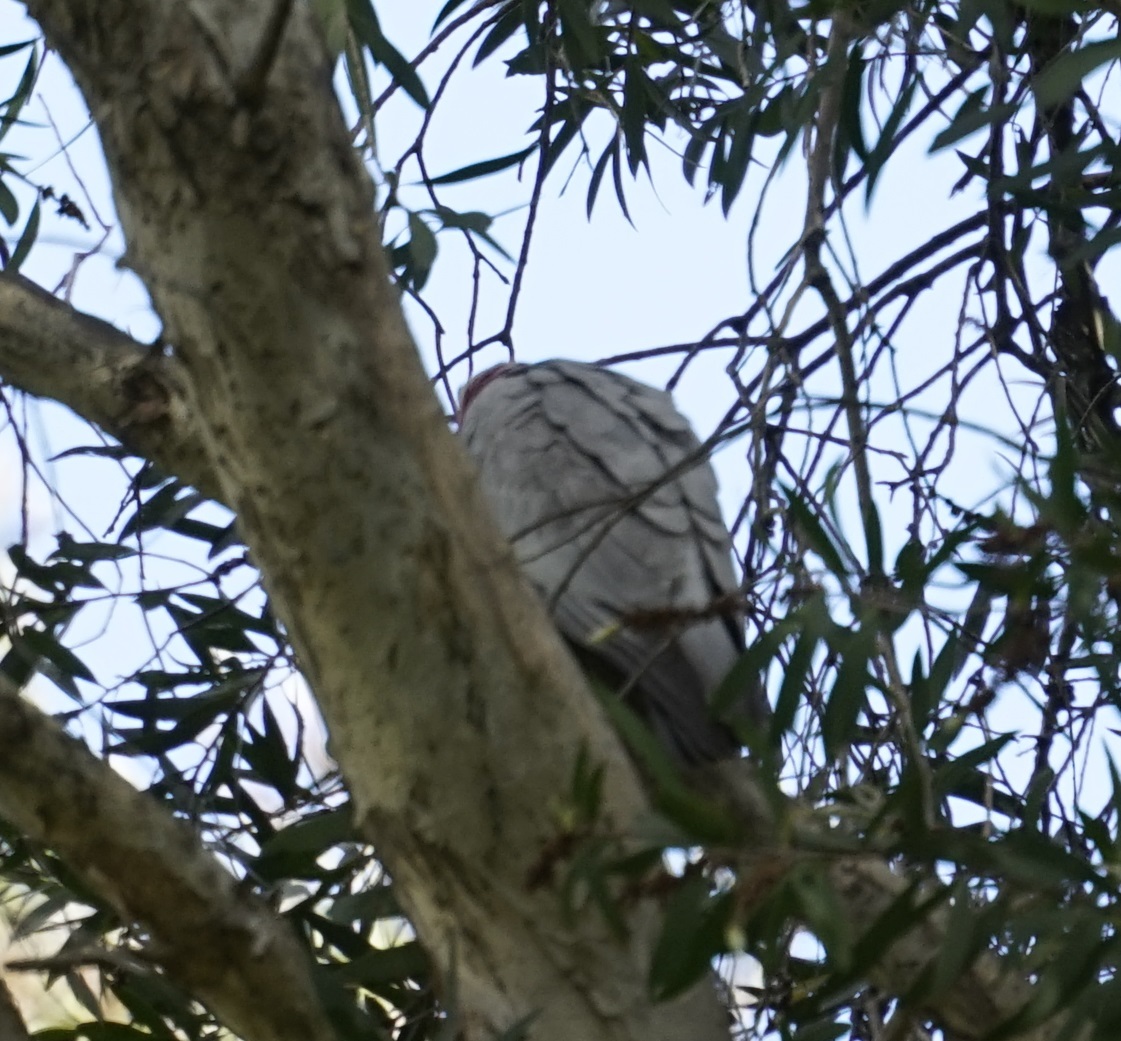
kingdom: Animalia
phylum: Chordata
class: Aves
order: Psittaciformes
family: Psittacidae
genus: Eolophus
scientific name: Eolophus roseicapilla
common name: Galah
